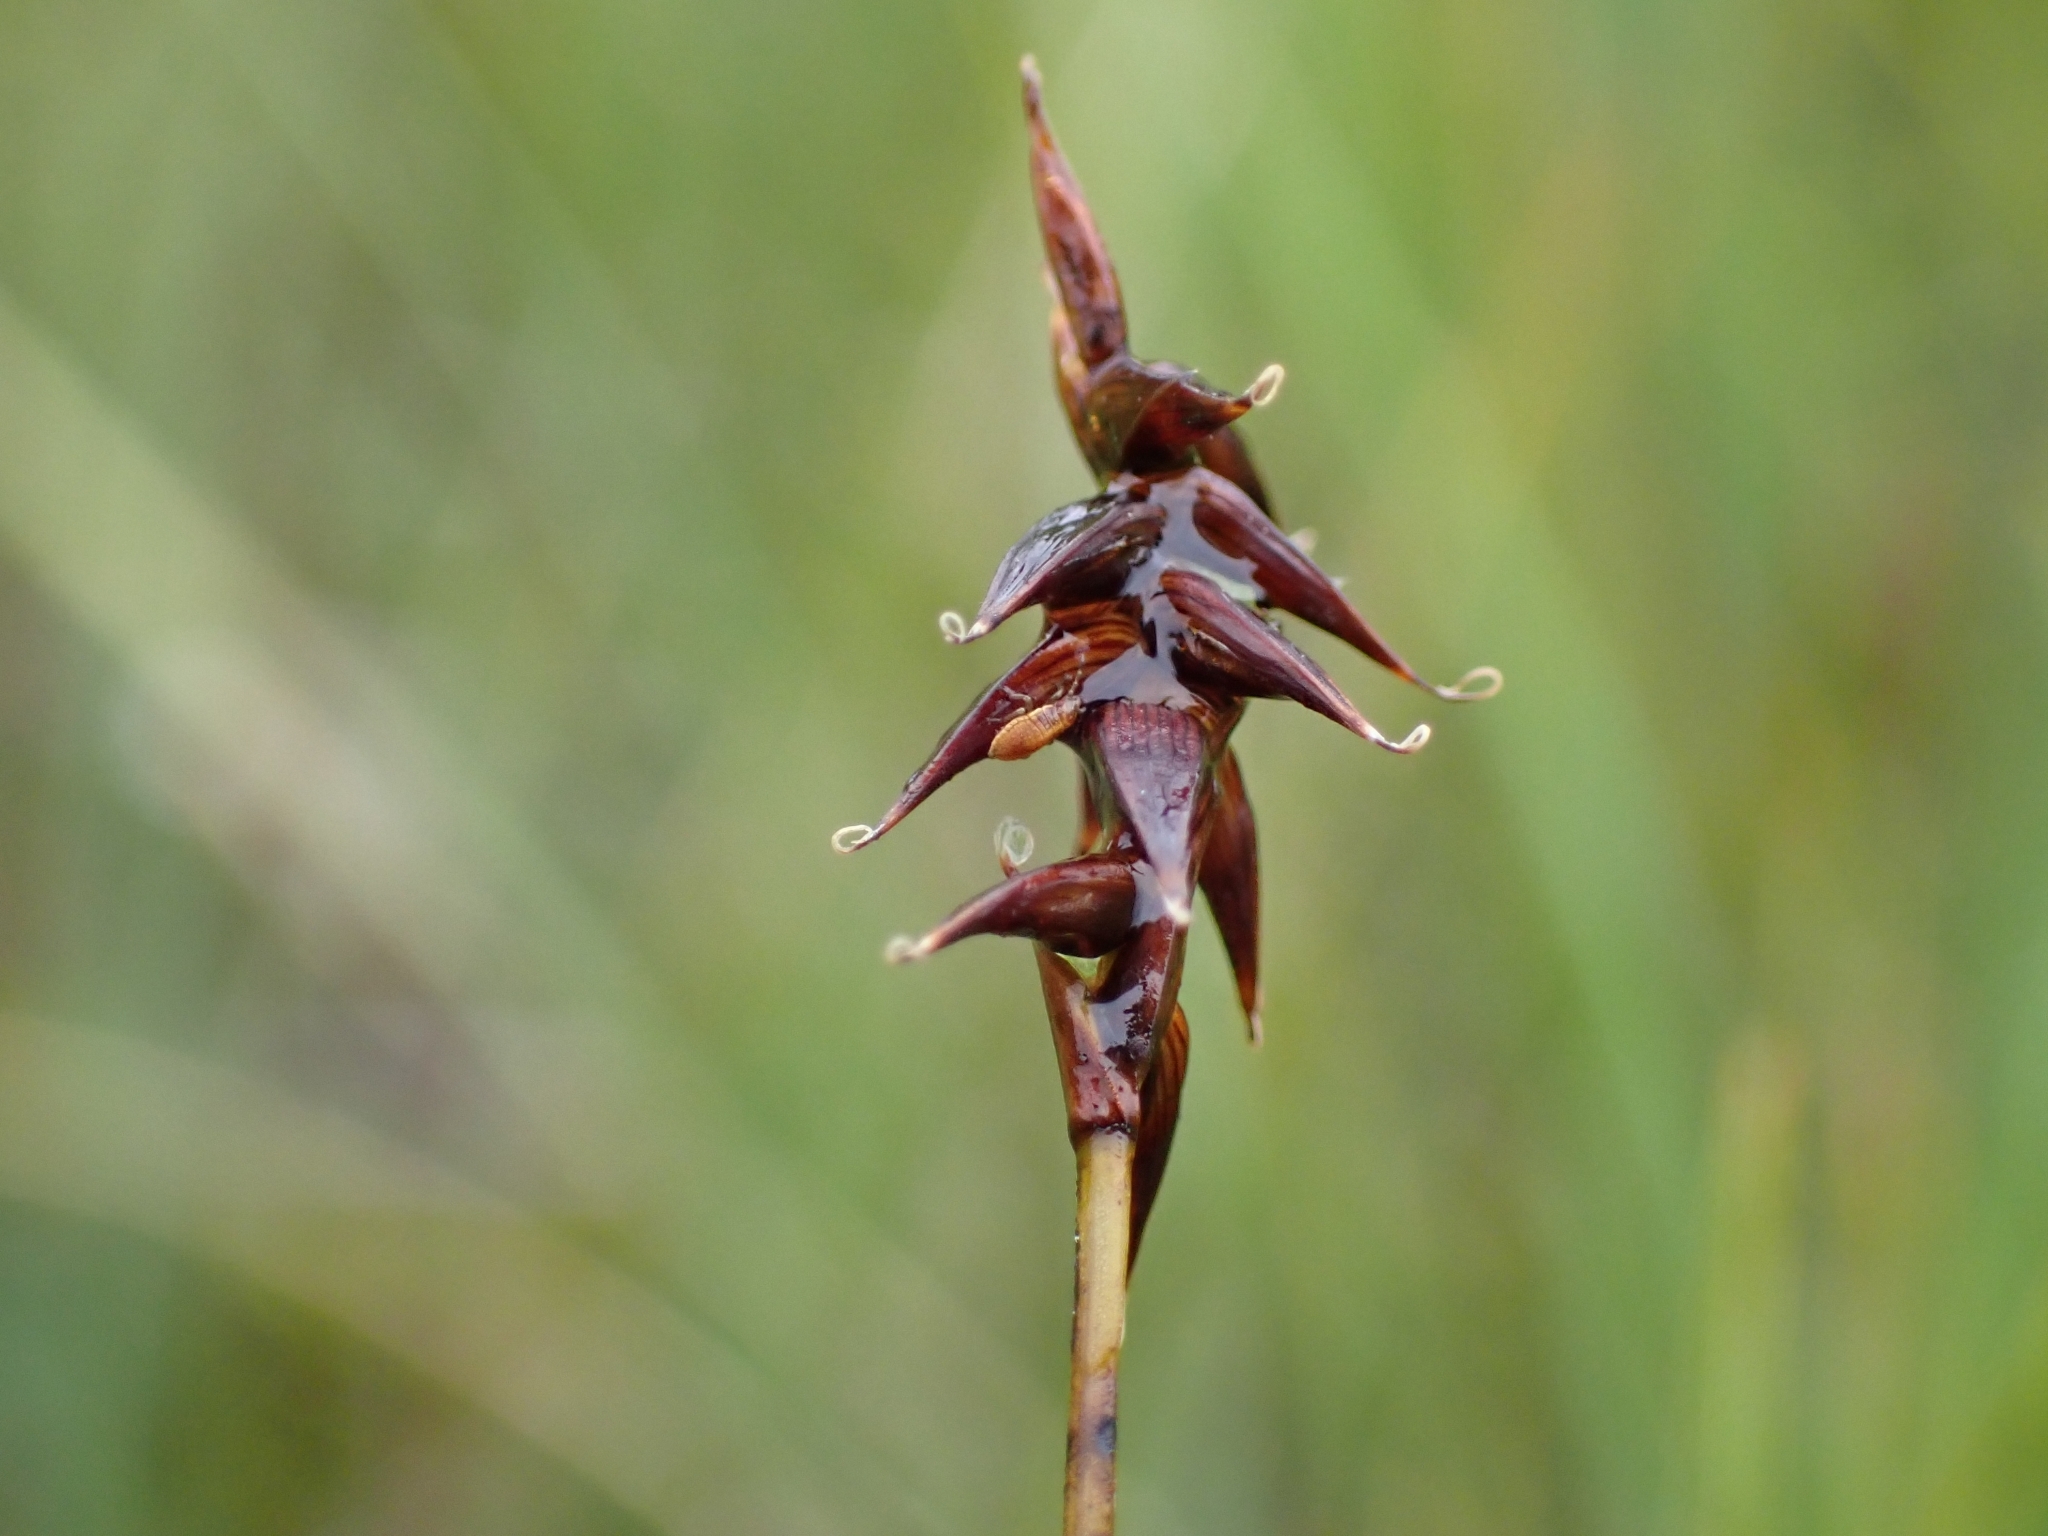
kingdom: Plantae
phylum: Tracheophyta
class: Liliopsida
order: Poales
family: Cyperaceae
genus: Carex
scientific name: Carex davalliana
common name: Davall's sedge
